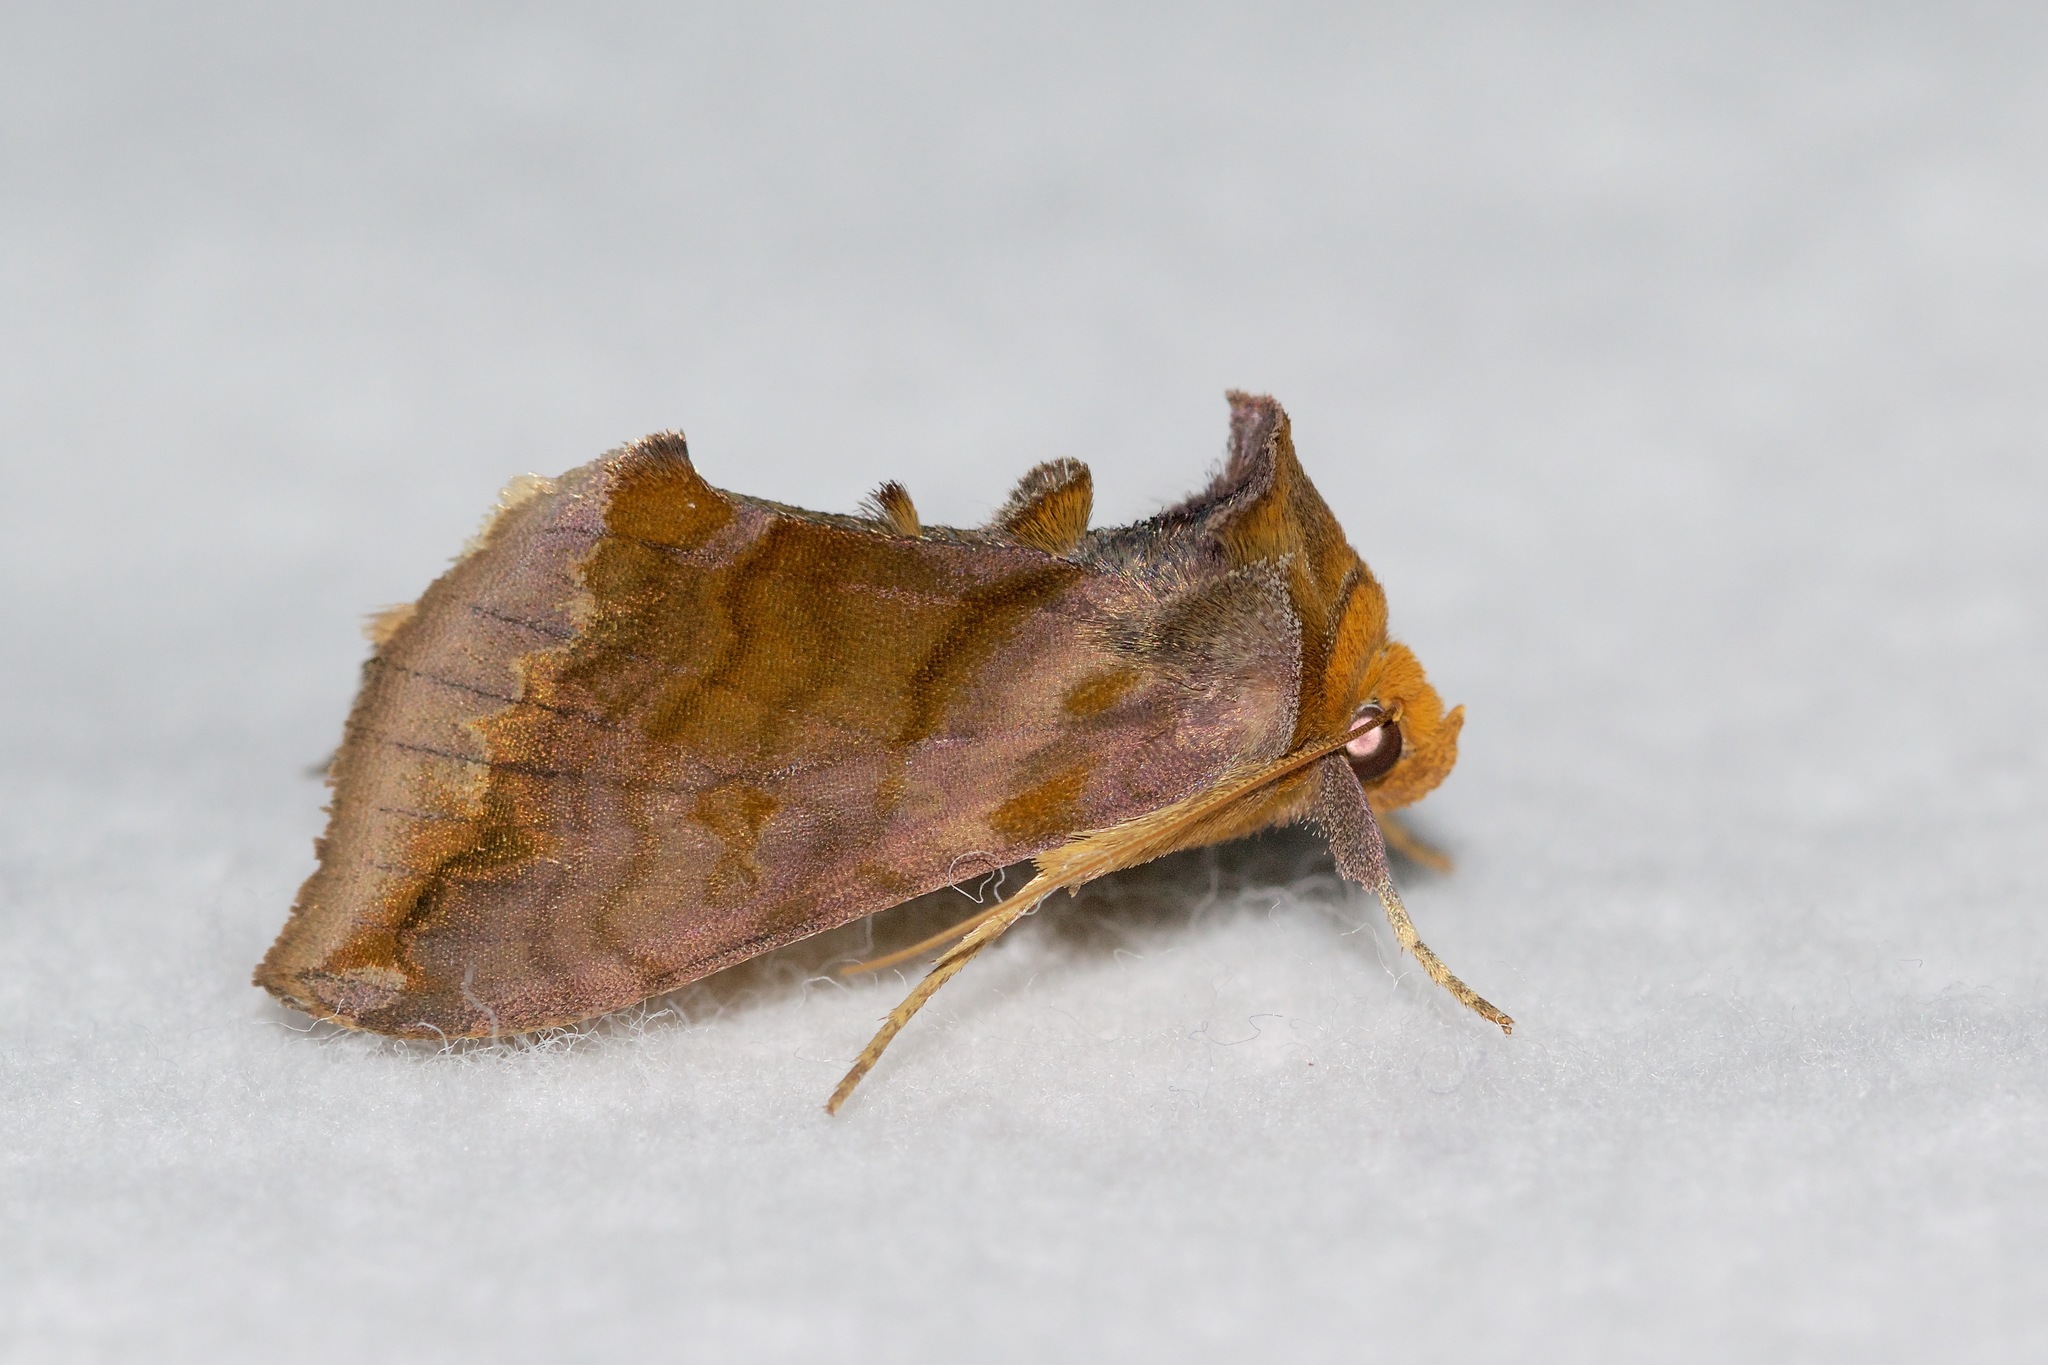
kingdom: Animalia
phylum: Arthropoda
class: Insecta
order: Lepidoptera
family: Noctuidae
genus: Allagrapha
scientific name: Allagrapha aerea
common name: Unspotted looper moth
